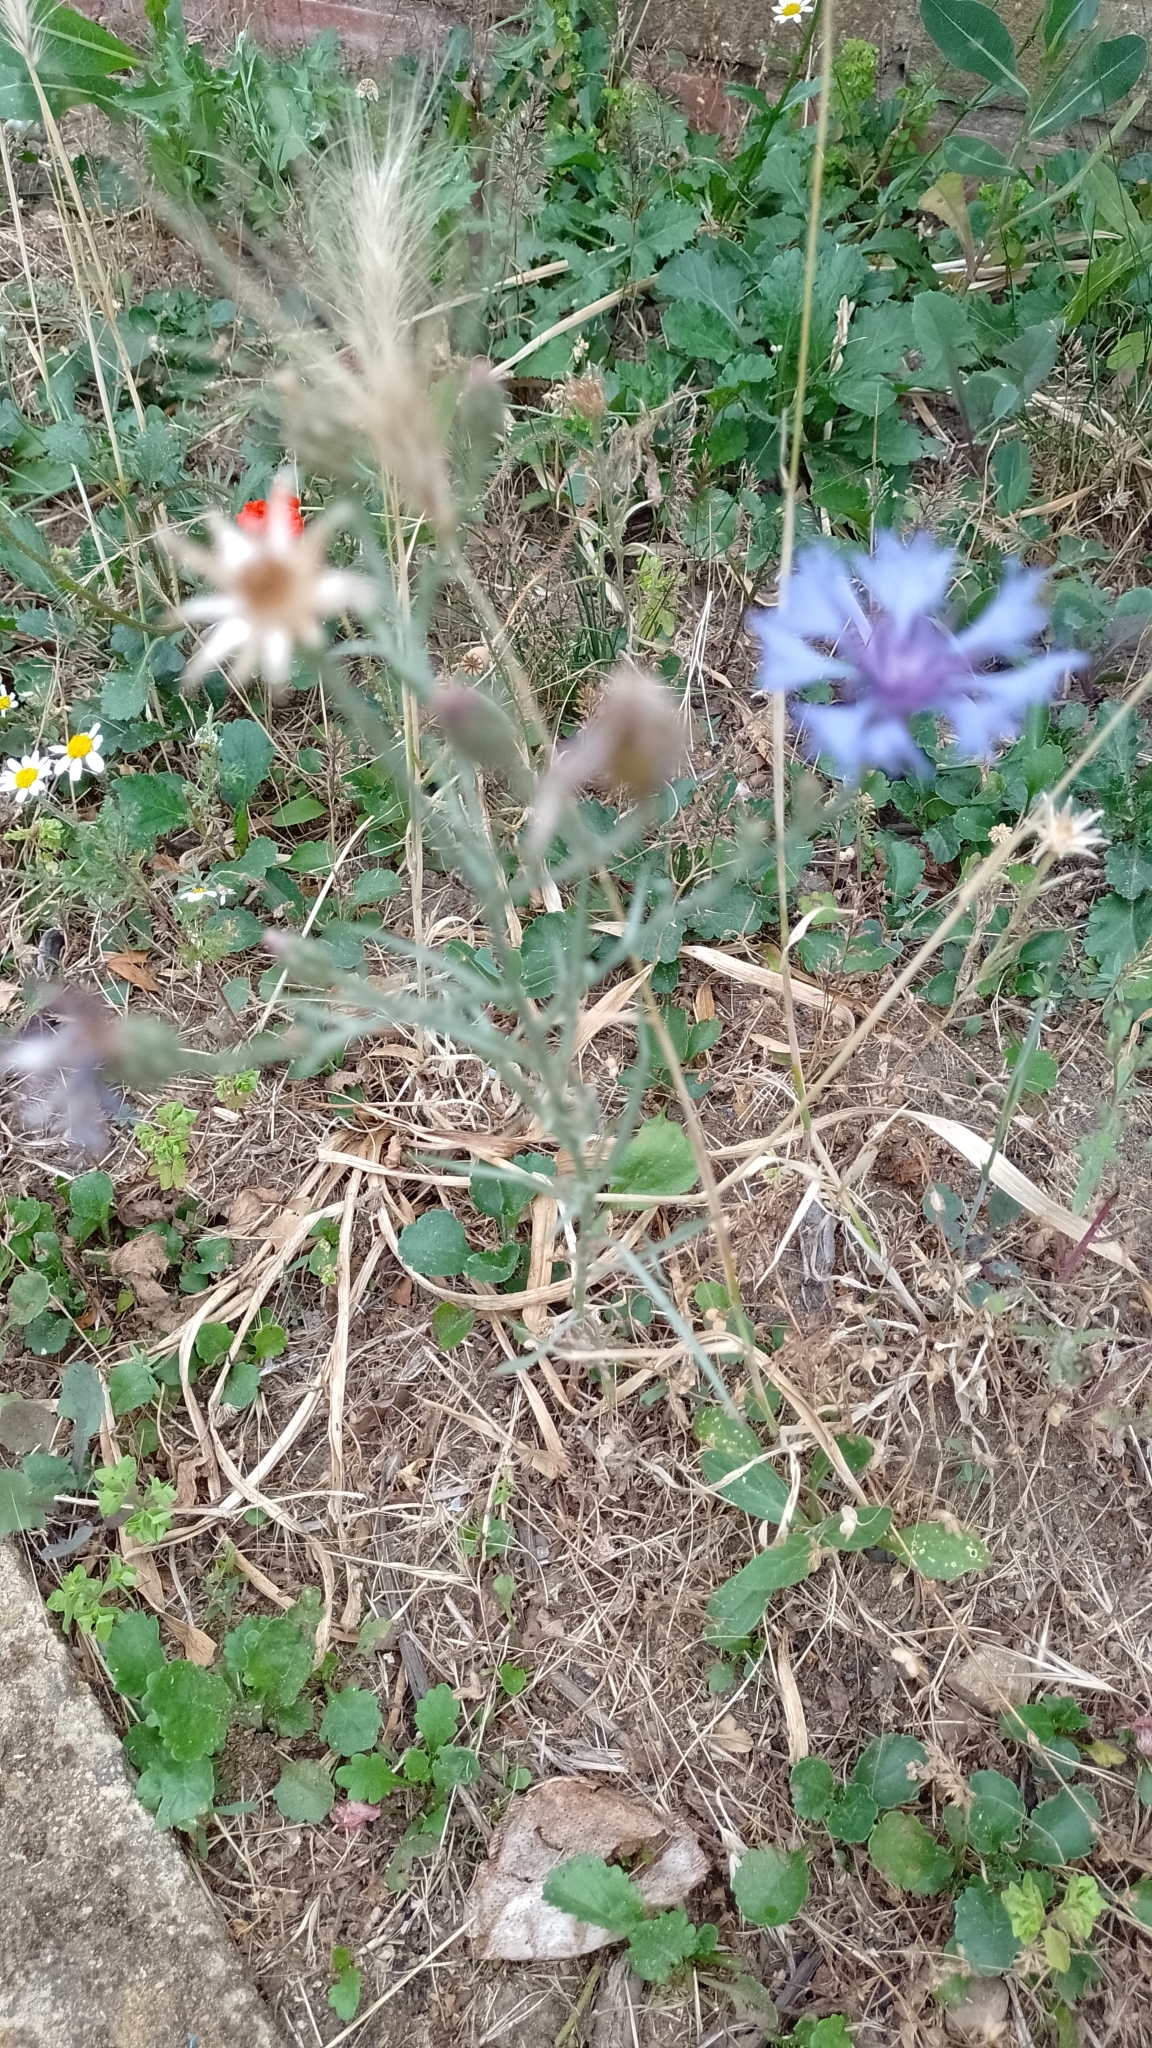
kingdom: Plantae
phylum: Tracheophyta
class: Magnoliopsida
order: Asterales
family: Asteraceae
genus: Centaurea
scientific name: Centaurea cyanus
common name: Cornflower
